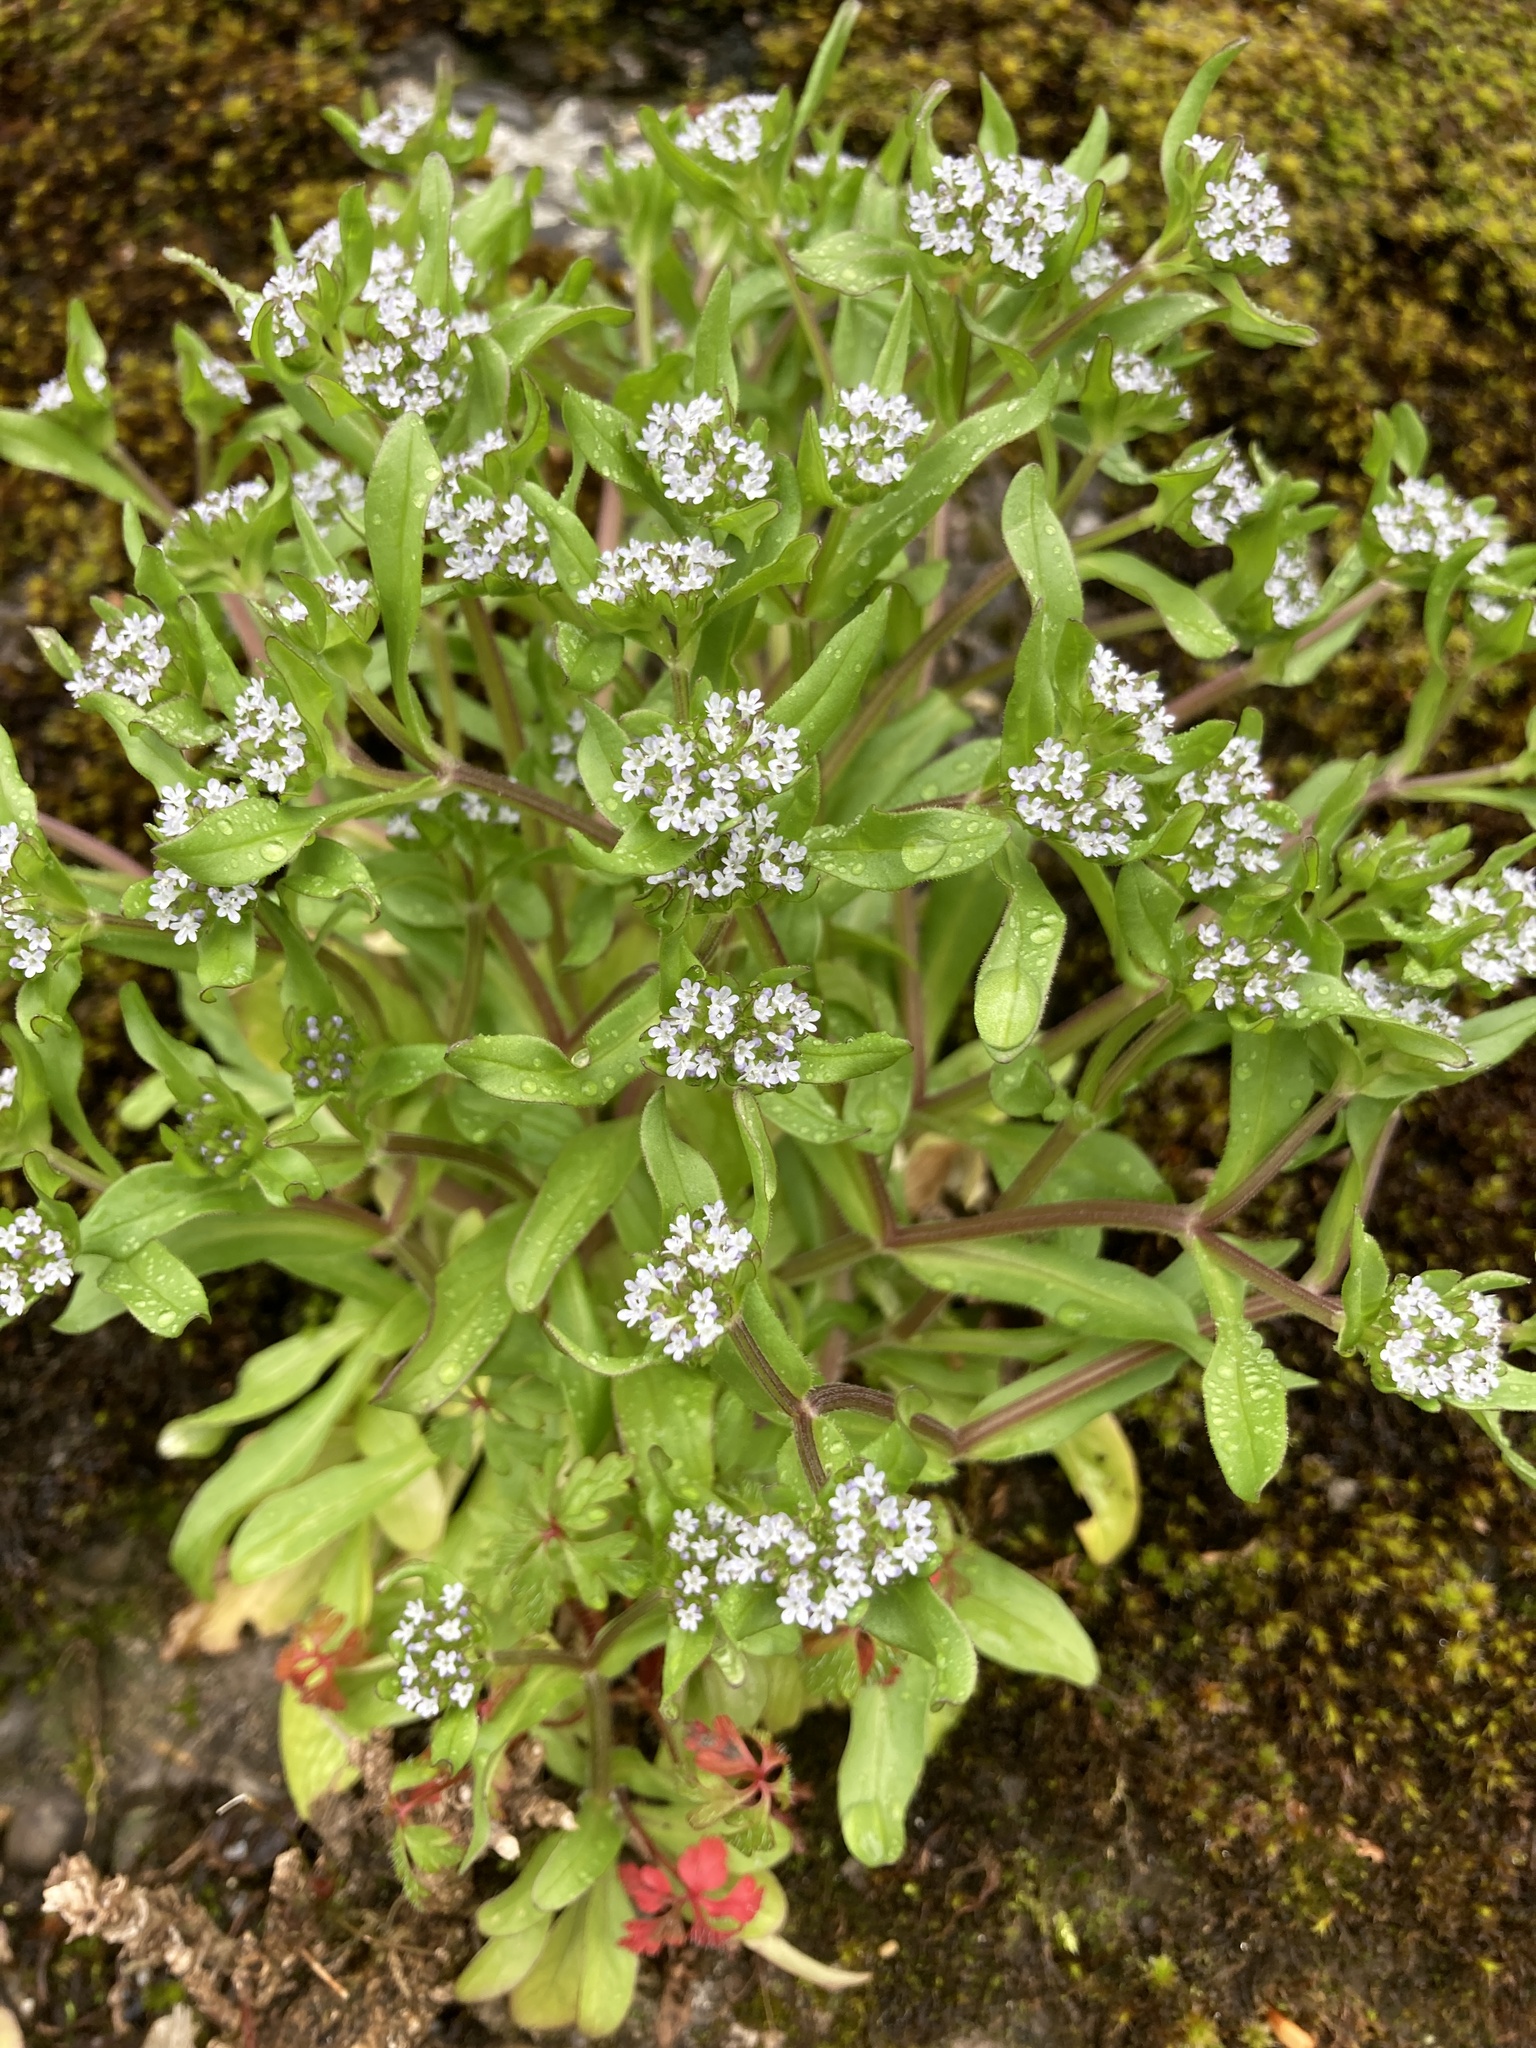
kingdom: Plantae
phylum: Tracheophyta
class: Magnoliopsida
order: Dipsacales
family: Caprifoliaceae
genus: Valerianella
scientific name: Valerianella locusta
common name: Common cornsalad
